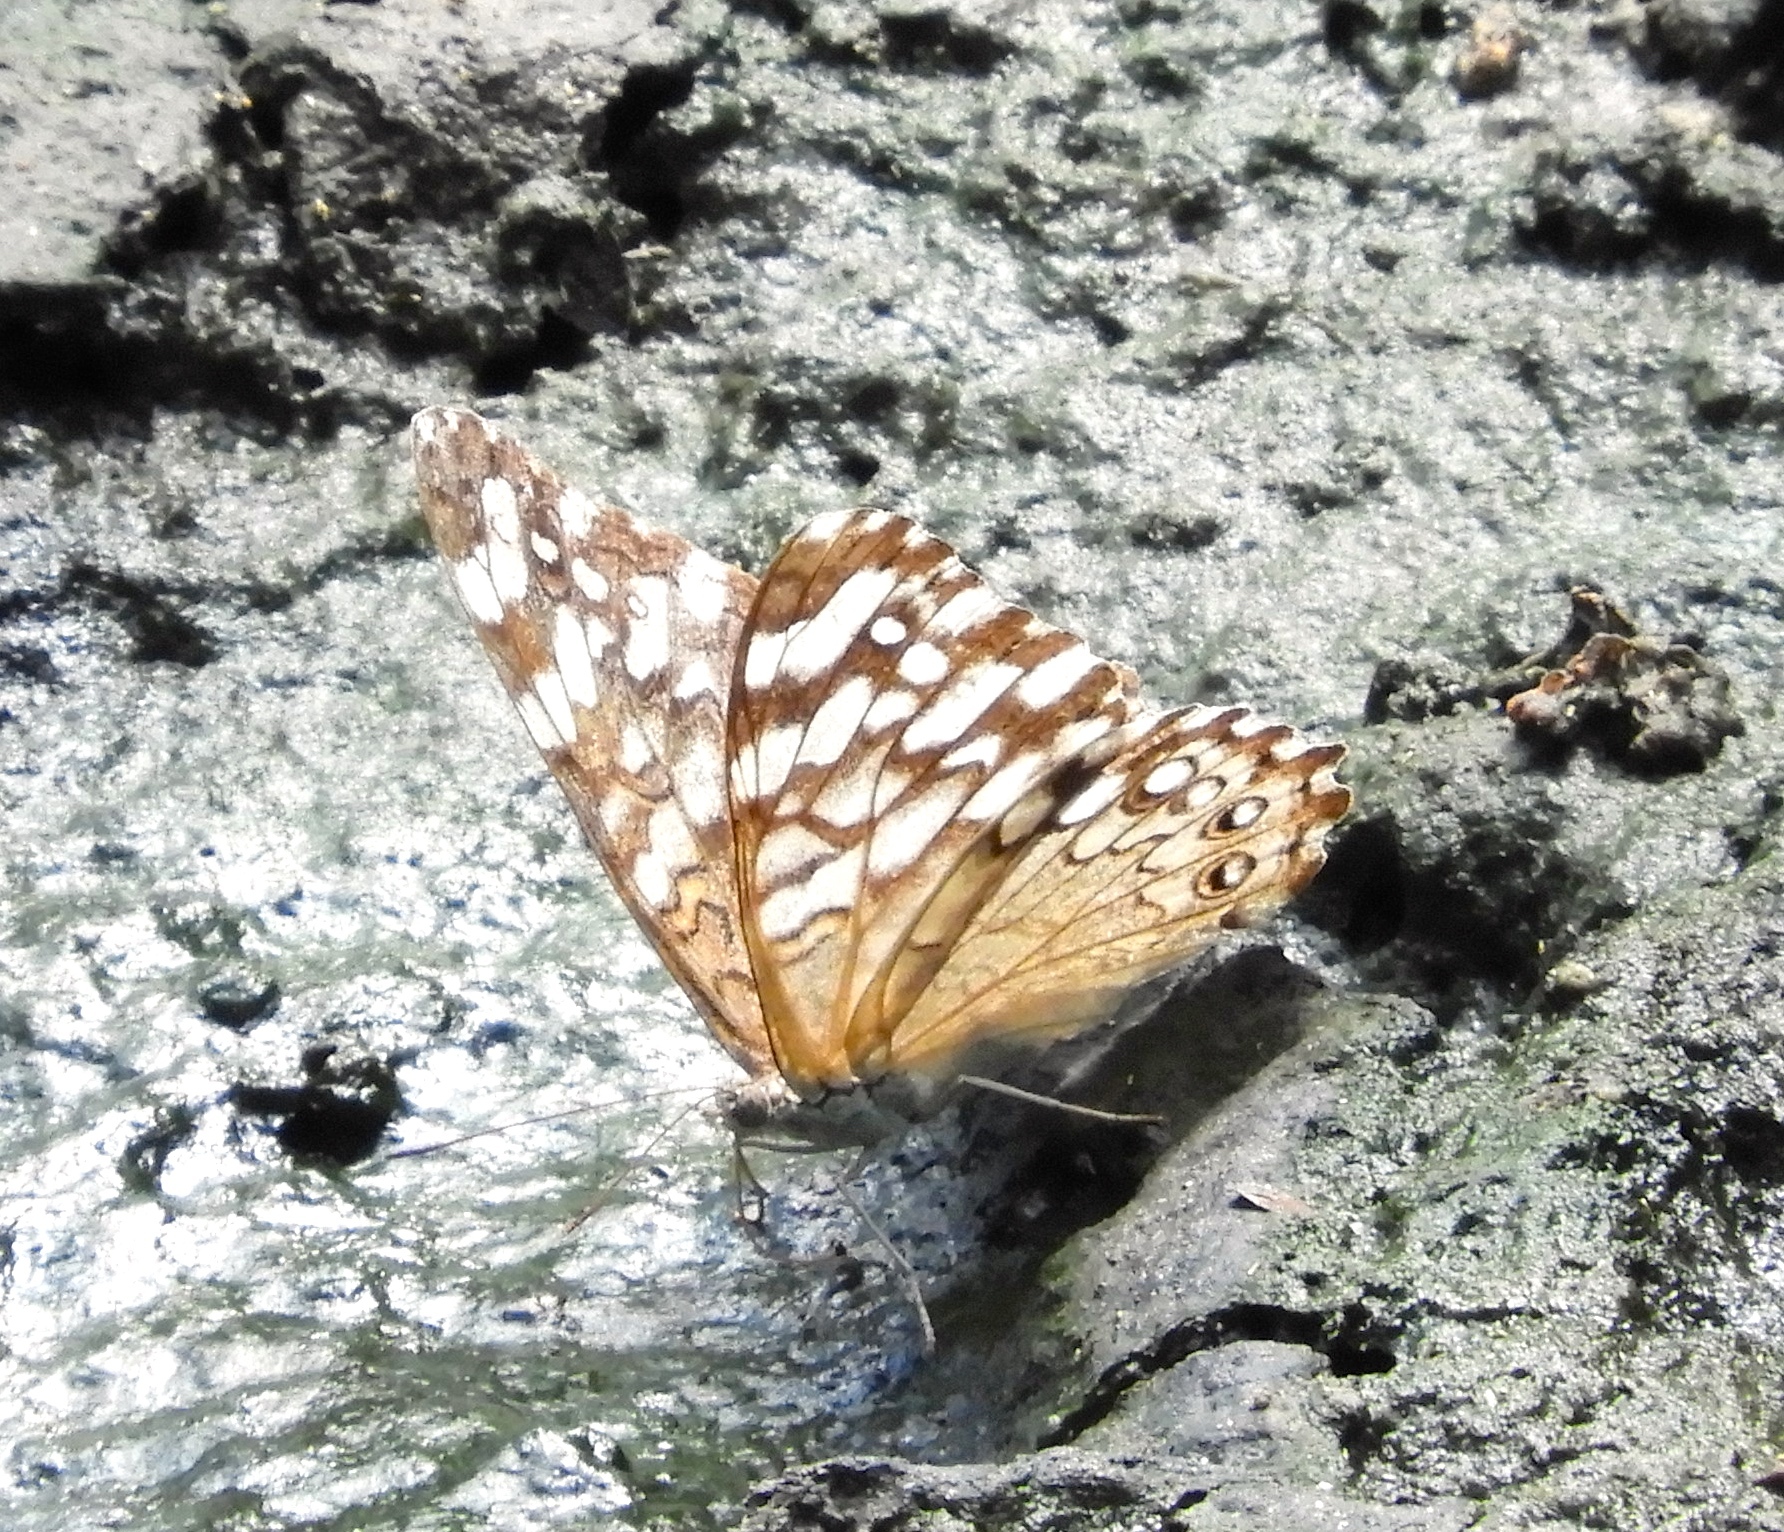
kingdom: Animalia
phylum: Arthropoda
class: Insecta
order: Lepidoptera
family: Nymphalidae
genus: Hamadryas
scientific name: Hamadryas februa
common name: Gray cracker
